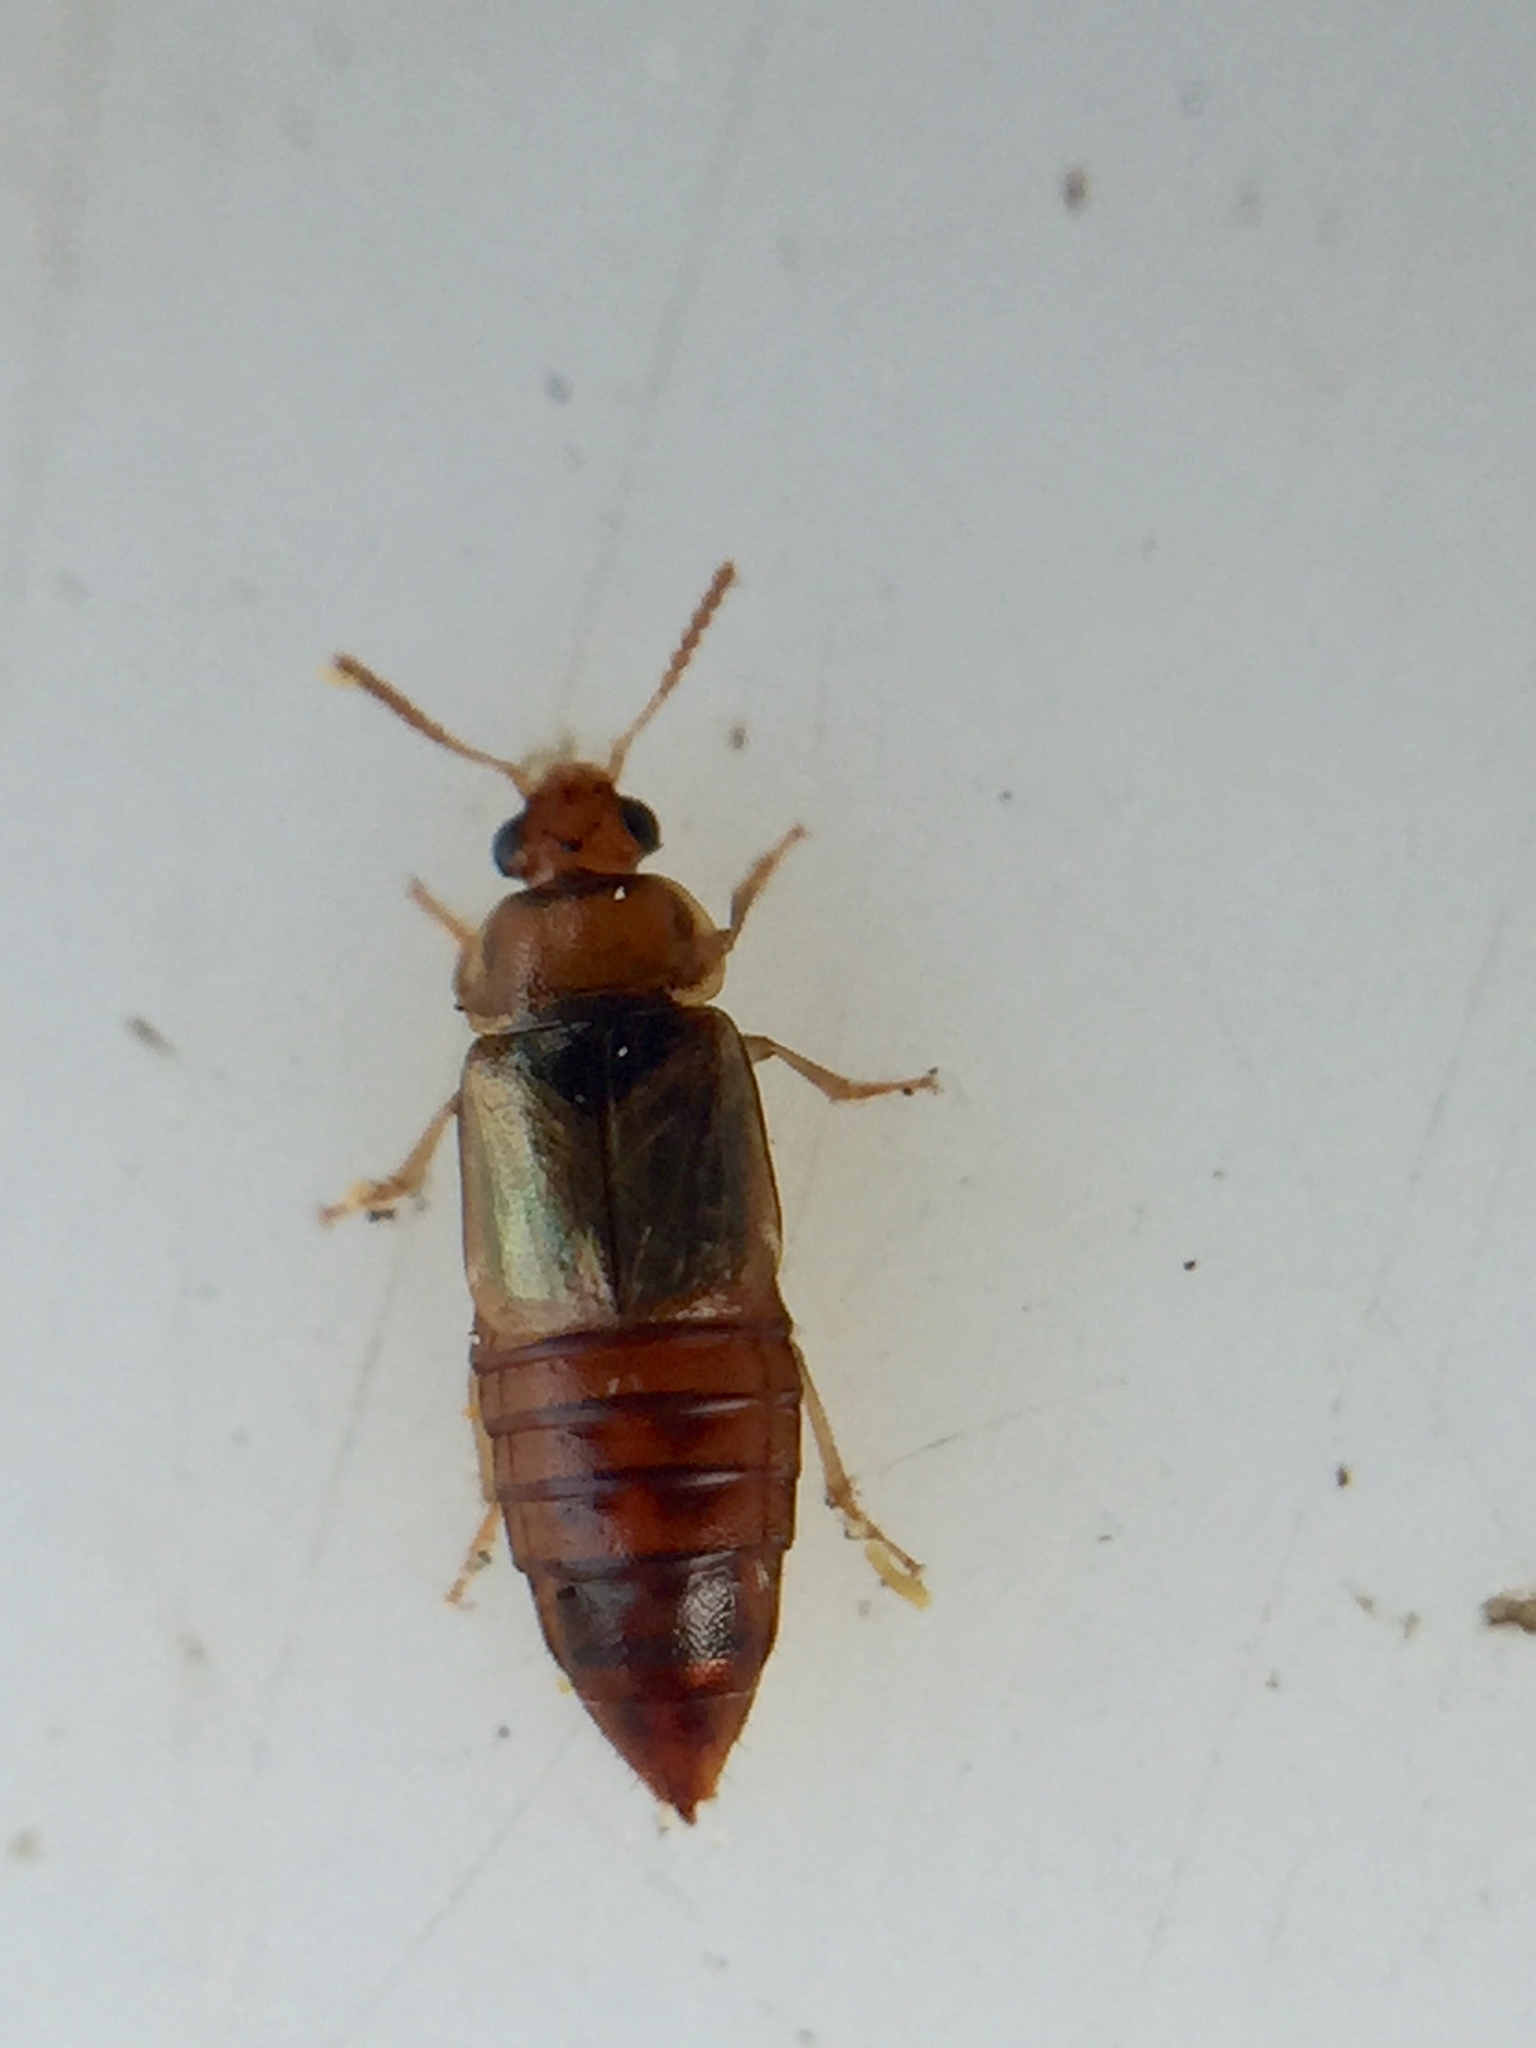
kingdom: Animalia
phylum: Arthropoda
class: Insecta
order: Coleoptera
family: Staphylinidae
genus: Austrolophrum
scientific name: Austrolophrum cribriceps
